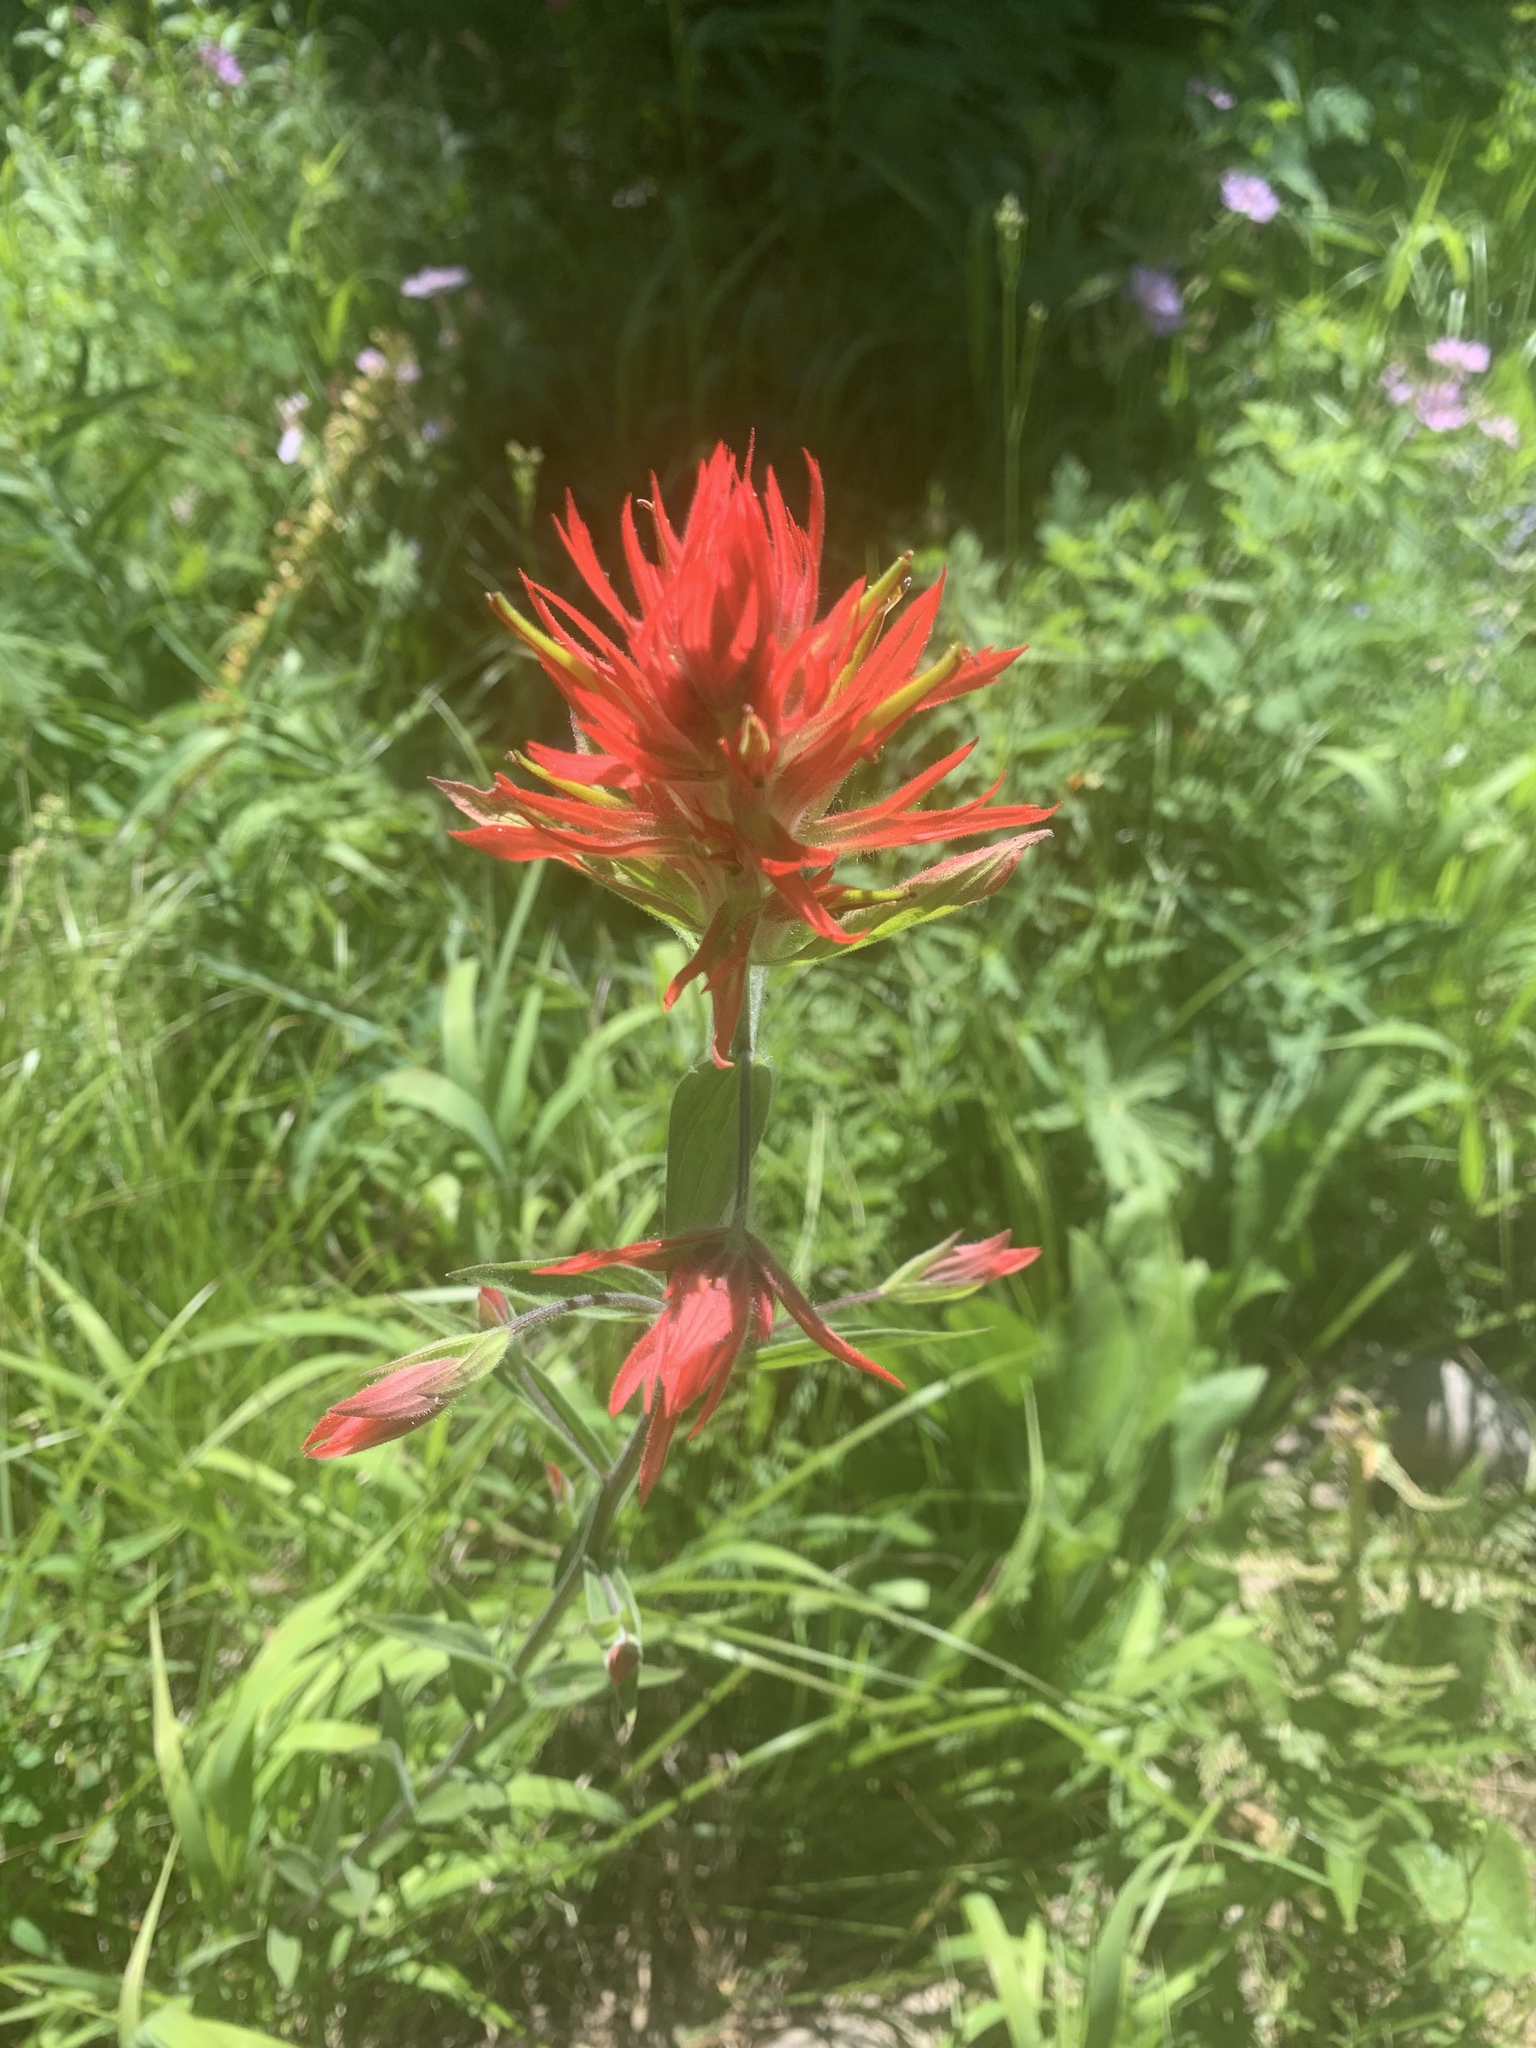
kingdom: Plantae
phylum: Tracheophyta
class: Magnoliopsida
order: Lamiales
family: Orobanchaceae
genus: Castilleja
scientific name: Castilleja miniata
